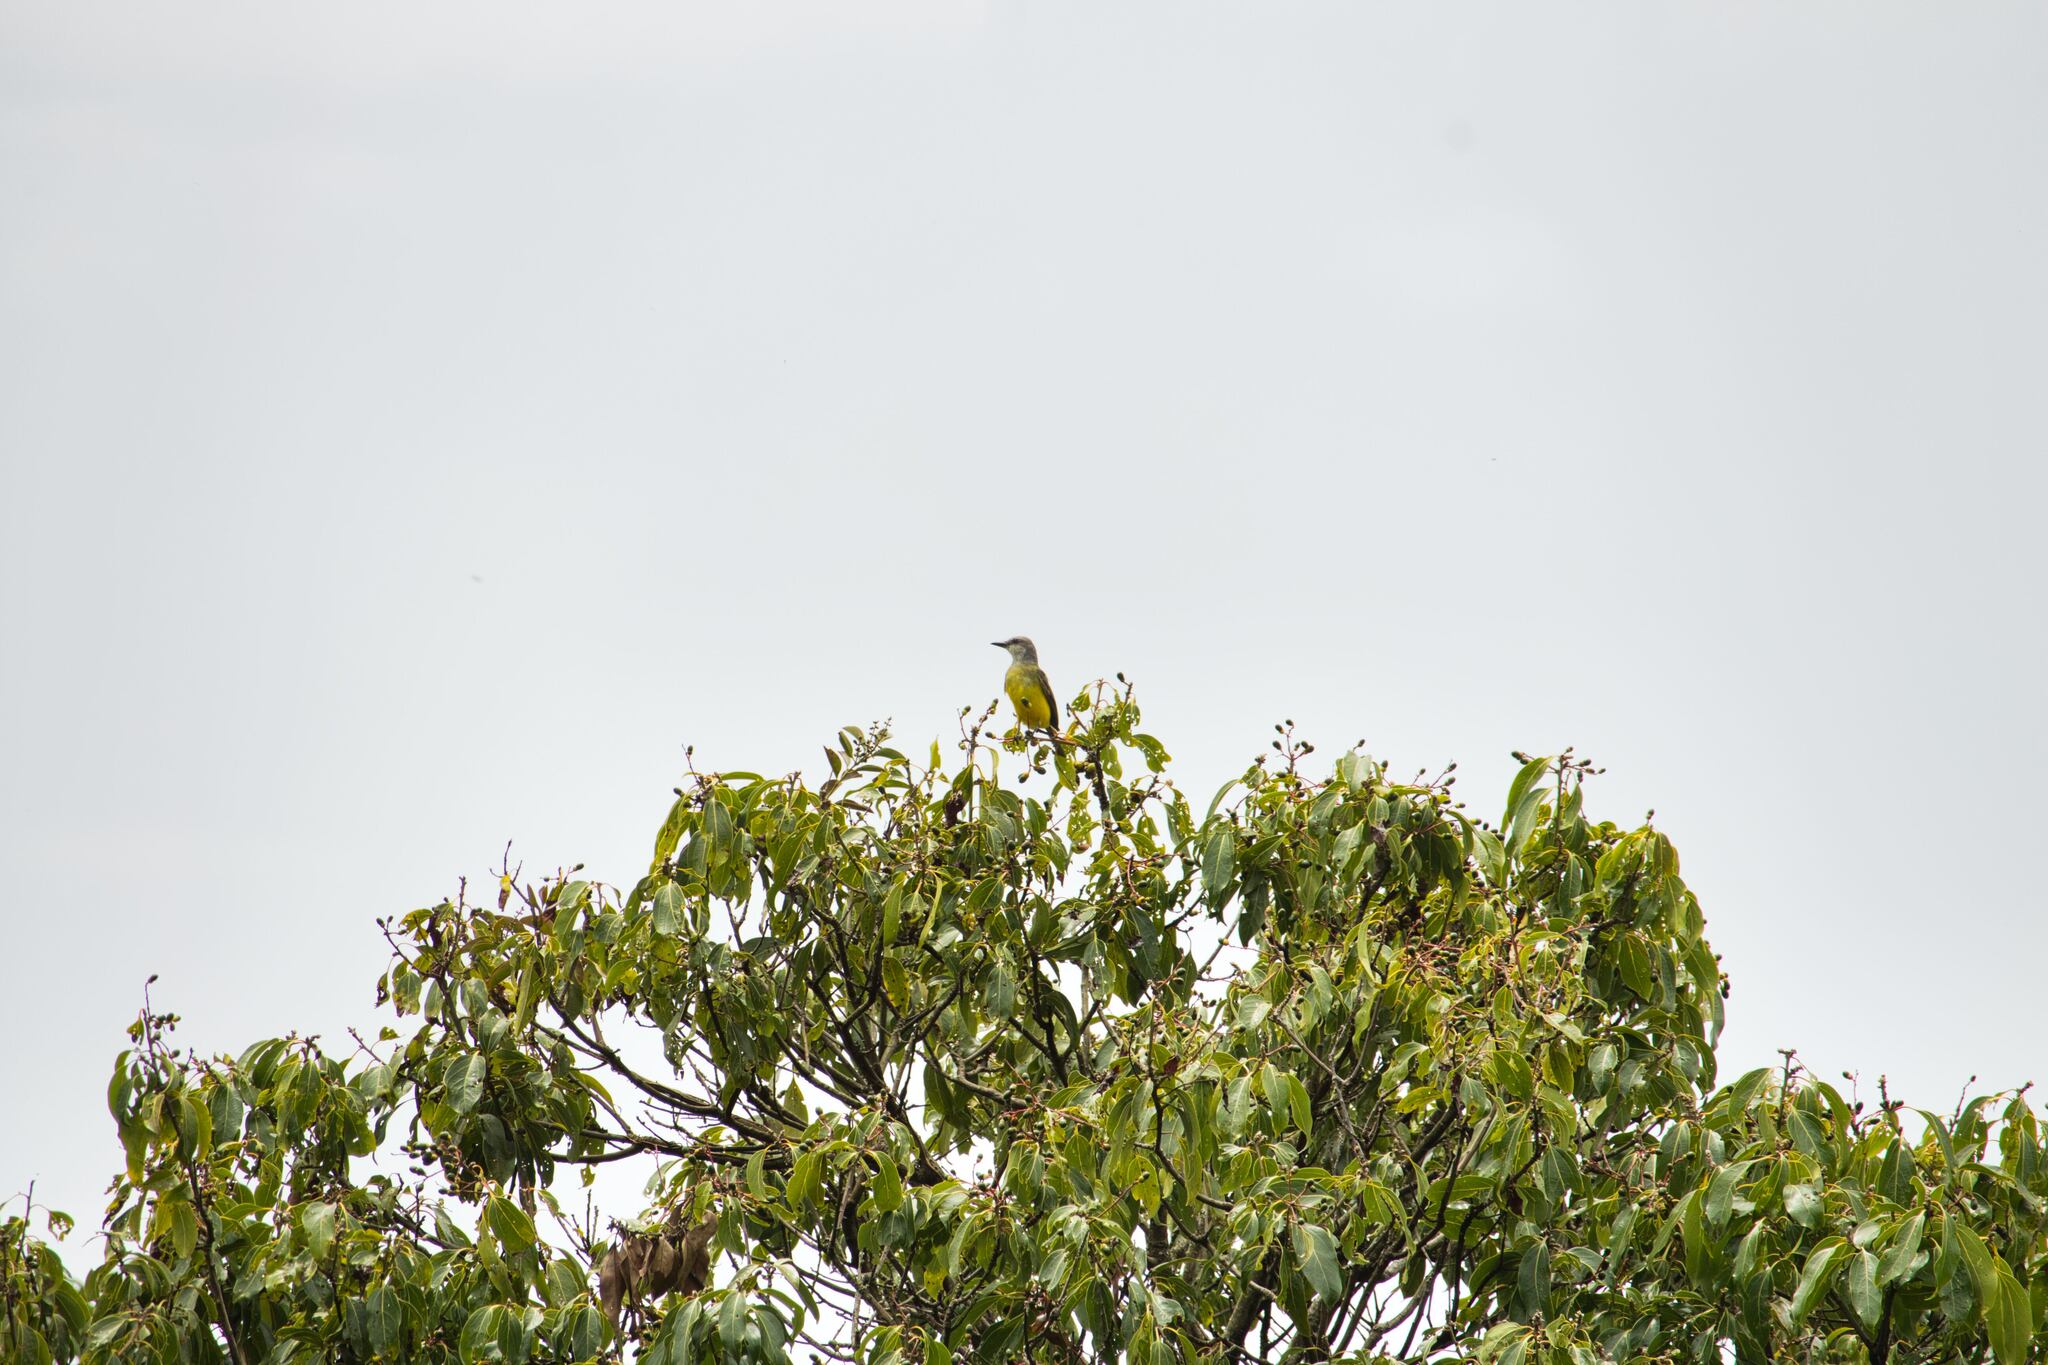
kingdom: Animalia
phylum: Chordata
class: Aves
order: Passeriformes
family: Tyrannidae
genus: Tyrannus
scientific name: Tyrannus melancholicus
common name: Tropical kingbird
